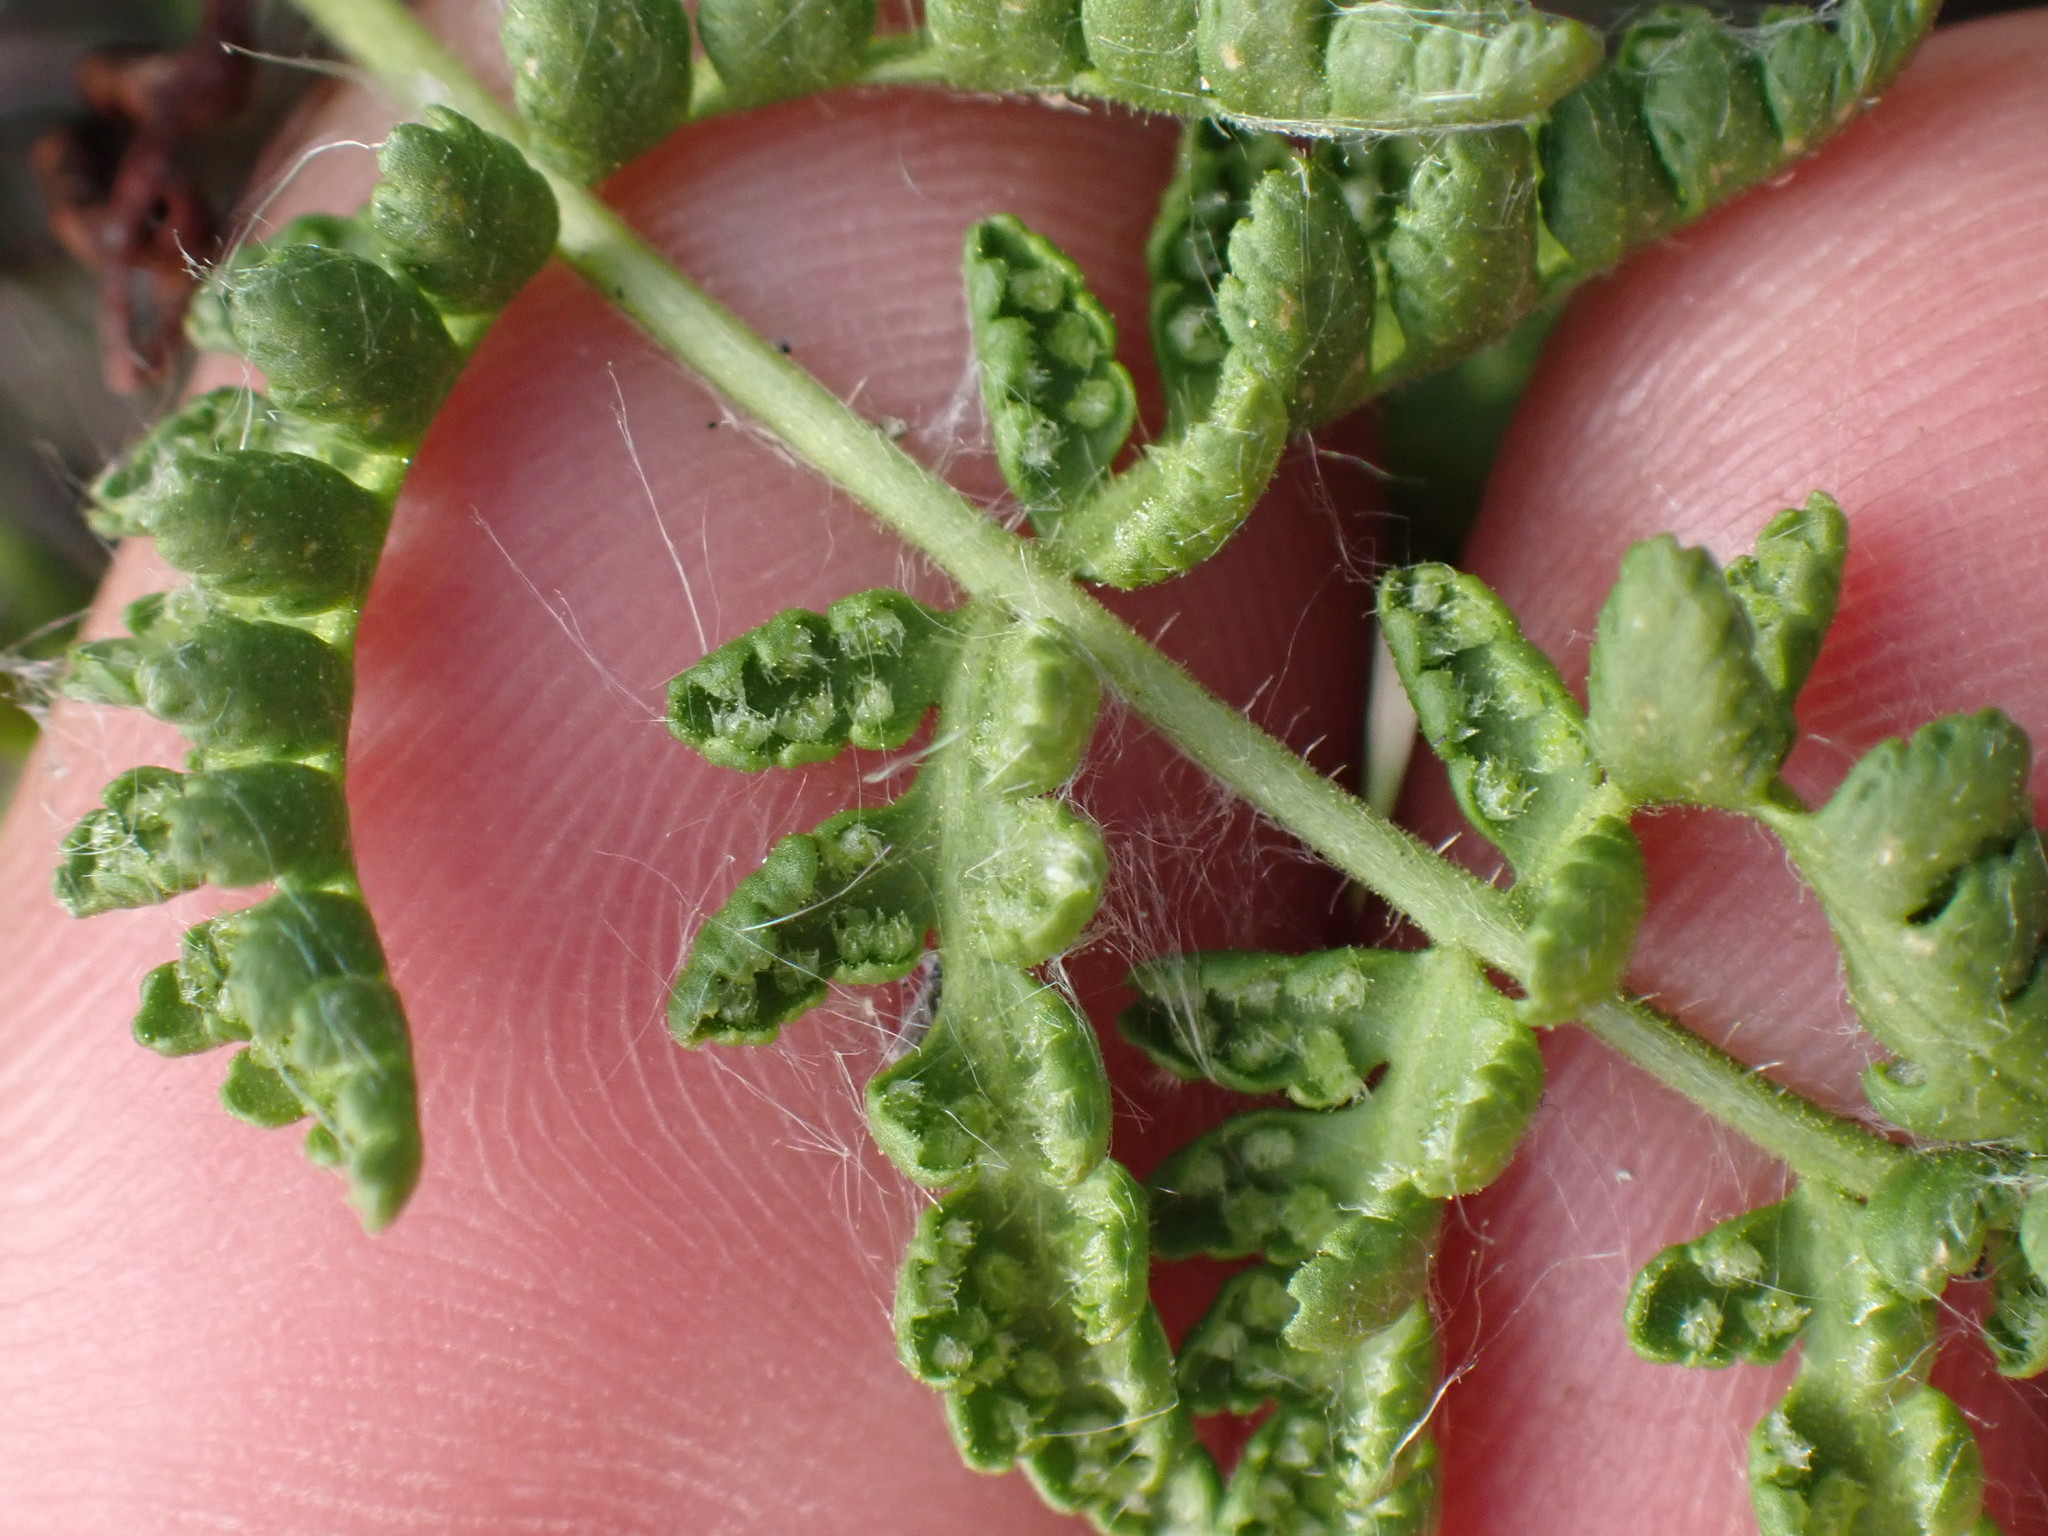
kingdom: Plantae
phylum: Tracheophyta
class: Polypodiopsida
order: Polypodiales
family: Woodsiaceae
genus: Physematium
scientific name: Physematium scopulinum
